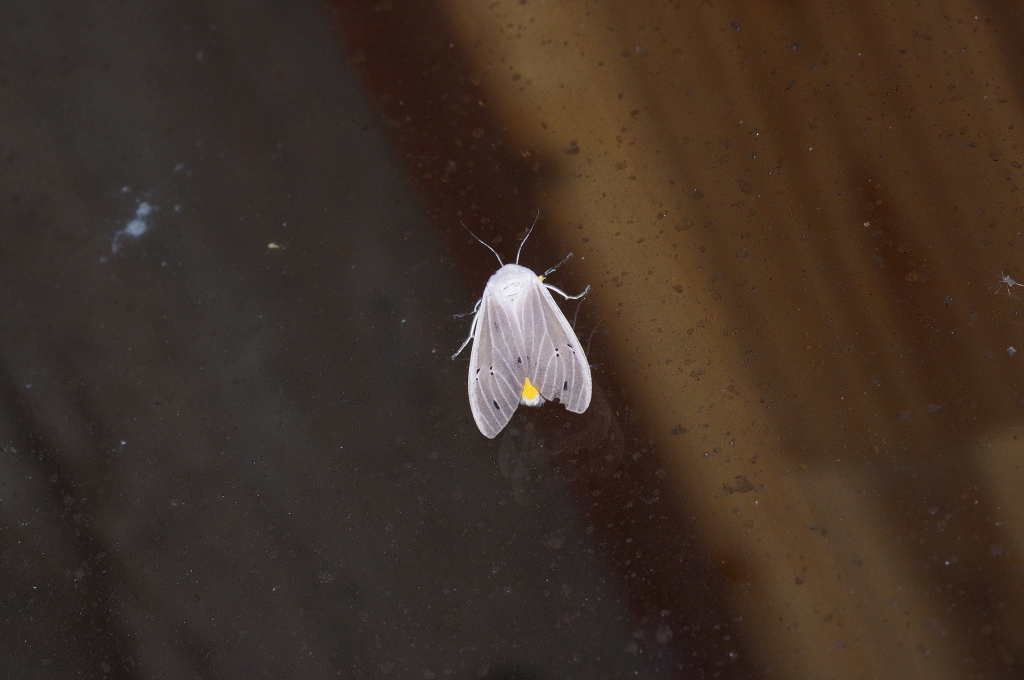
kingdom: Animalia
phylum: Arthropoda
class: Insecta
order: Lepidoptera
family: Erebidae
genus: Creatonotos
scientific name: Creatonotos transiens
